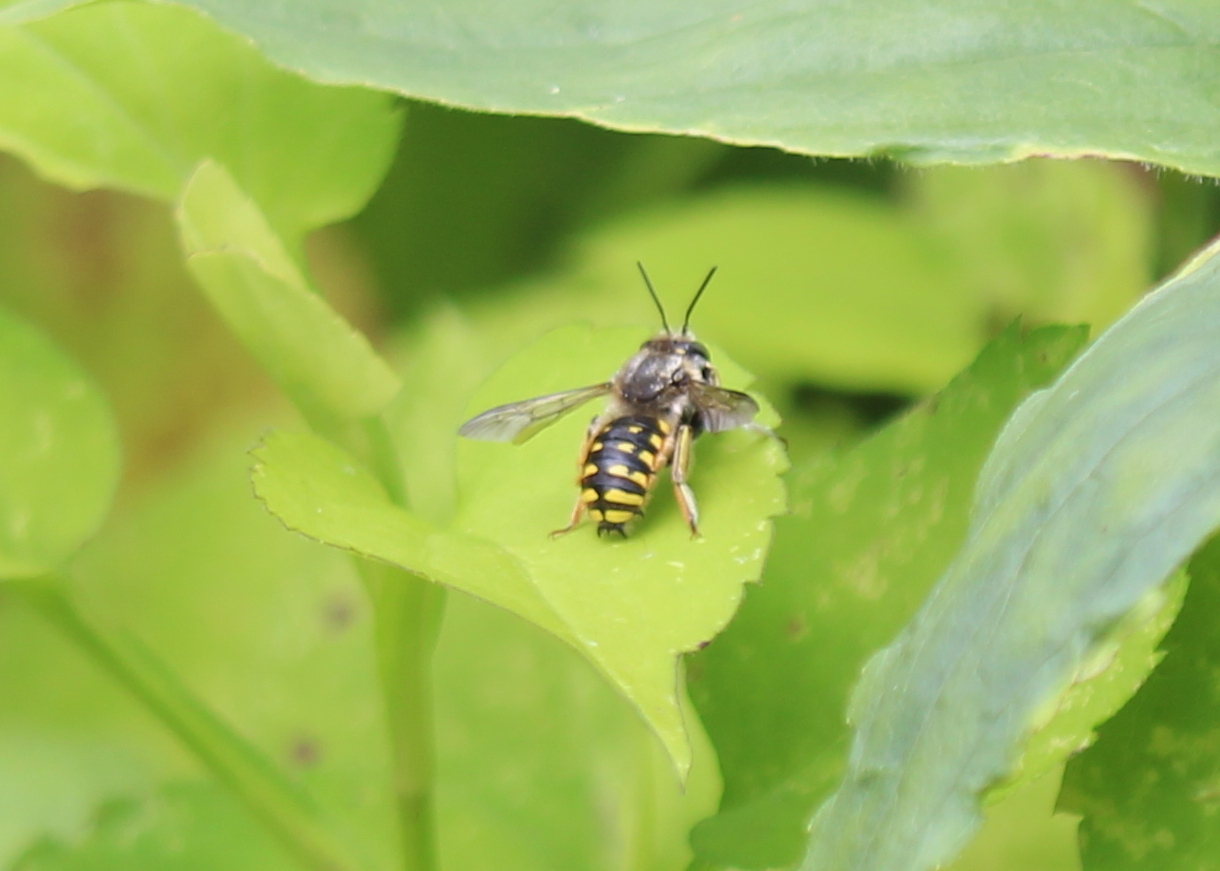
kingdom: Animalia
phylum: Arthropoda
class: Insecta
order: Hymenoptera
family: Megachilidae
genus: Anthidium
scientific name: Anthidium manicatum
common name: Wool carder bee
